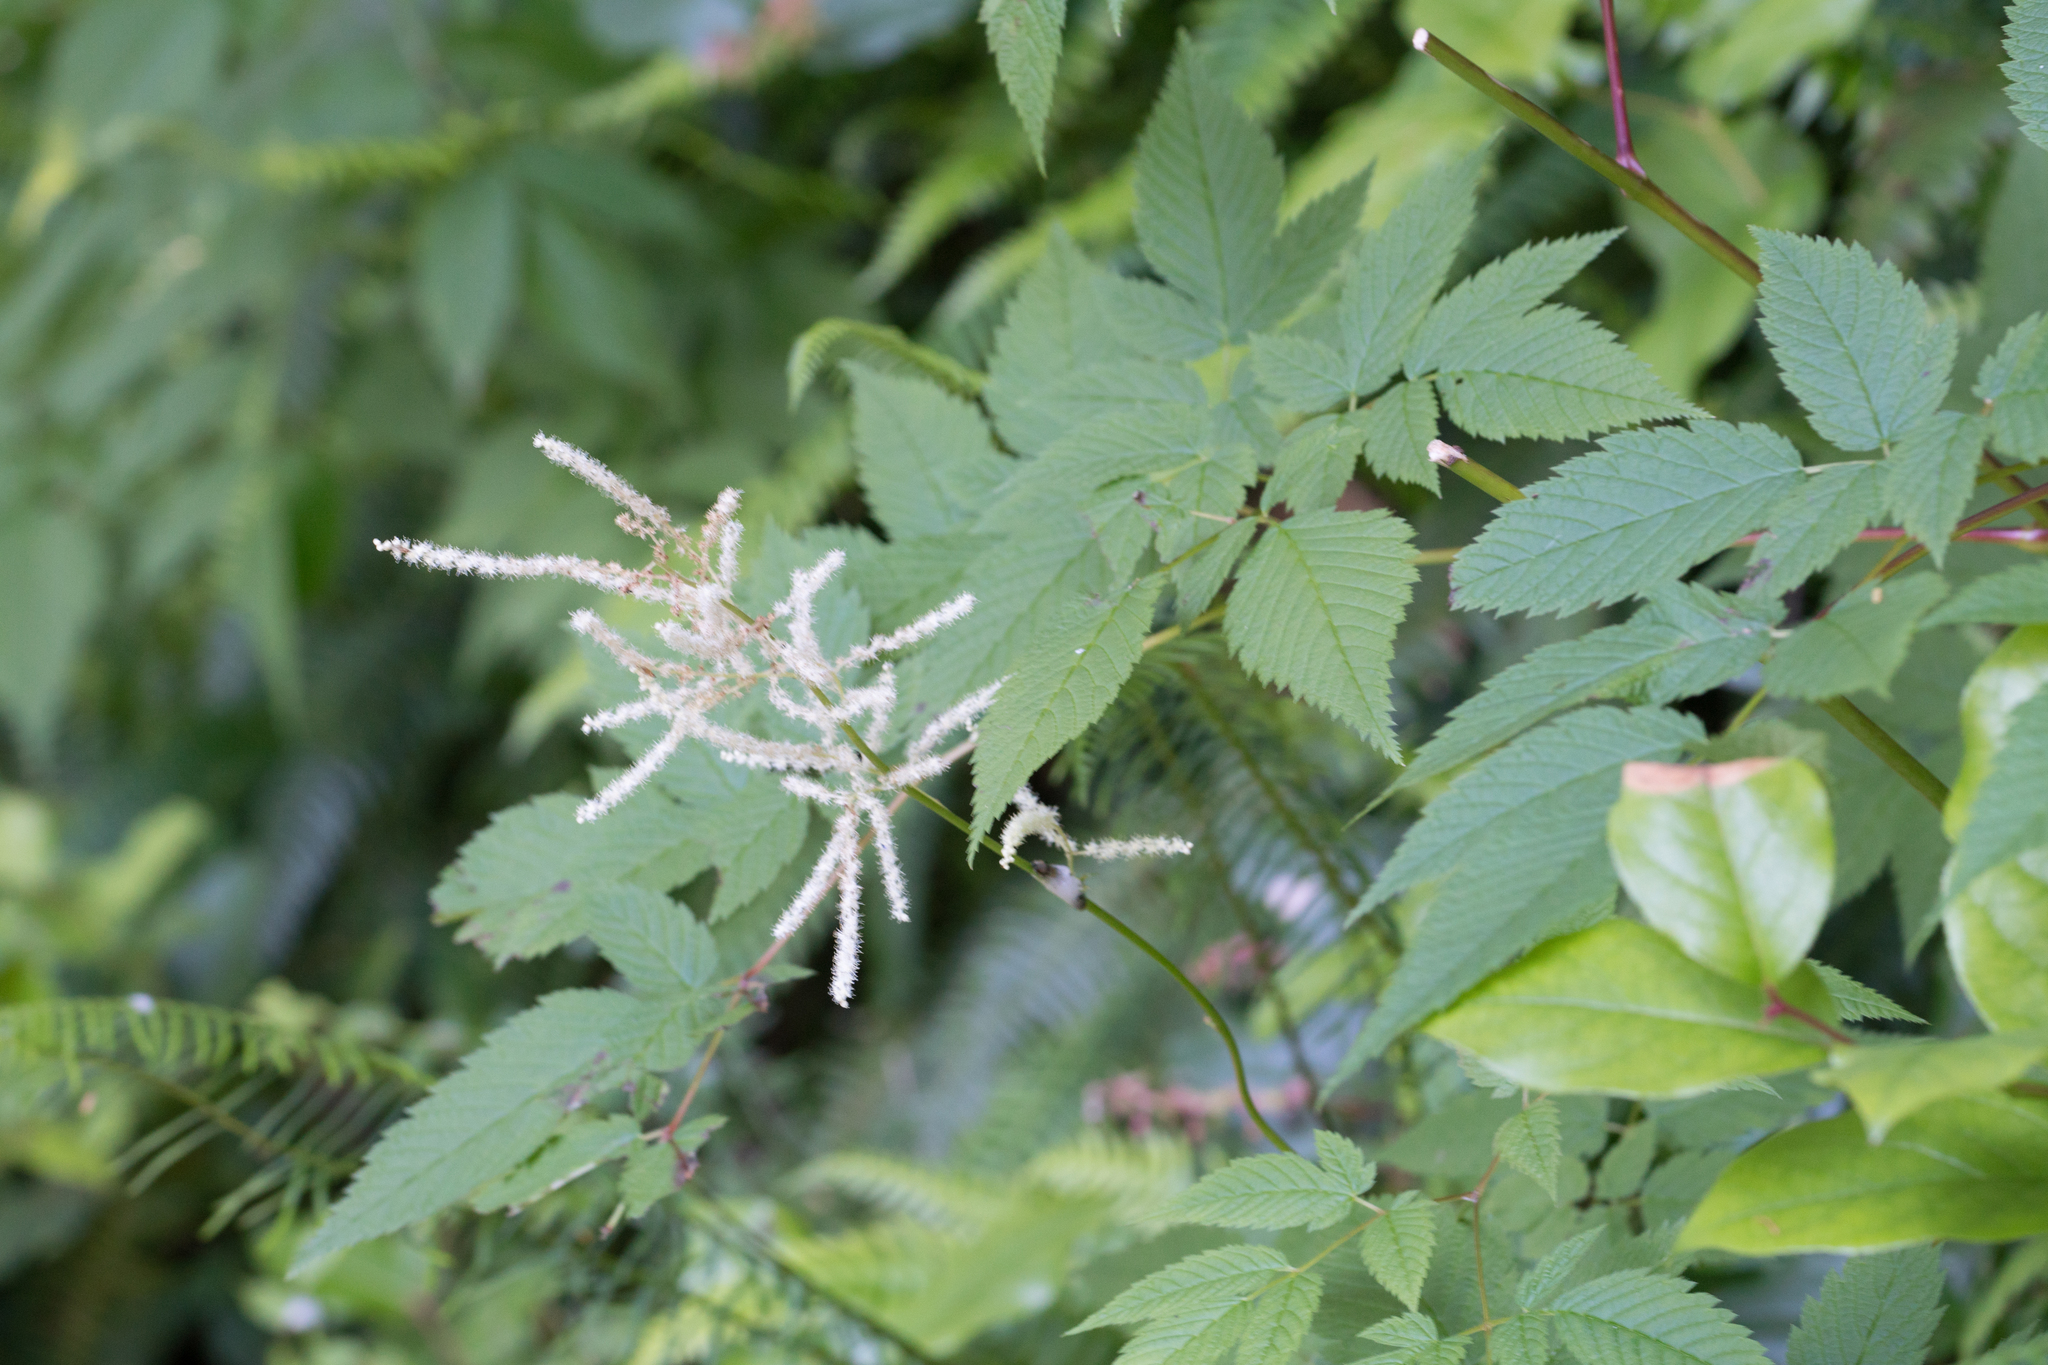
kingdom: Plantae
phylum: Tracheophyta
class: Magnoliopsida
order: Rosales
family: Rosaceae
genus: Aruncus
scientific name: Aruncus dioicus
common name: Buck's-beard
